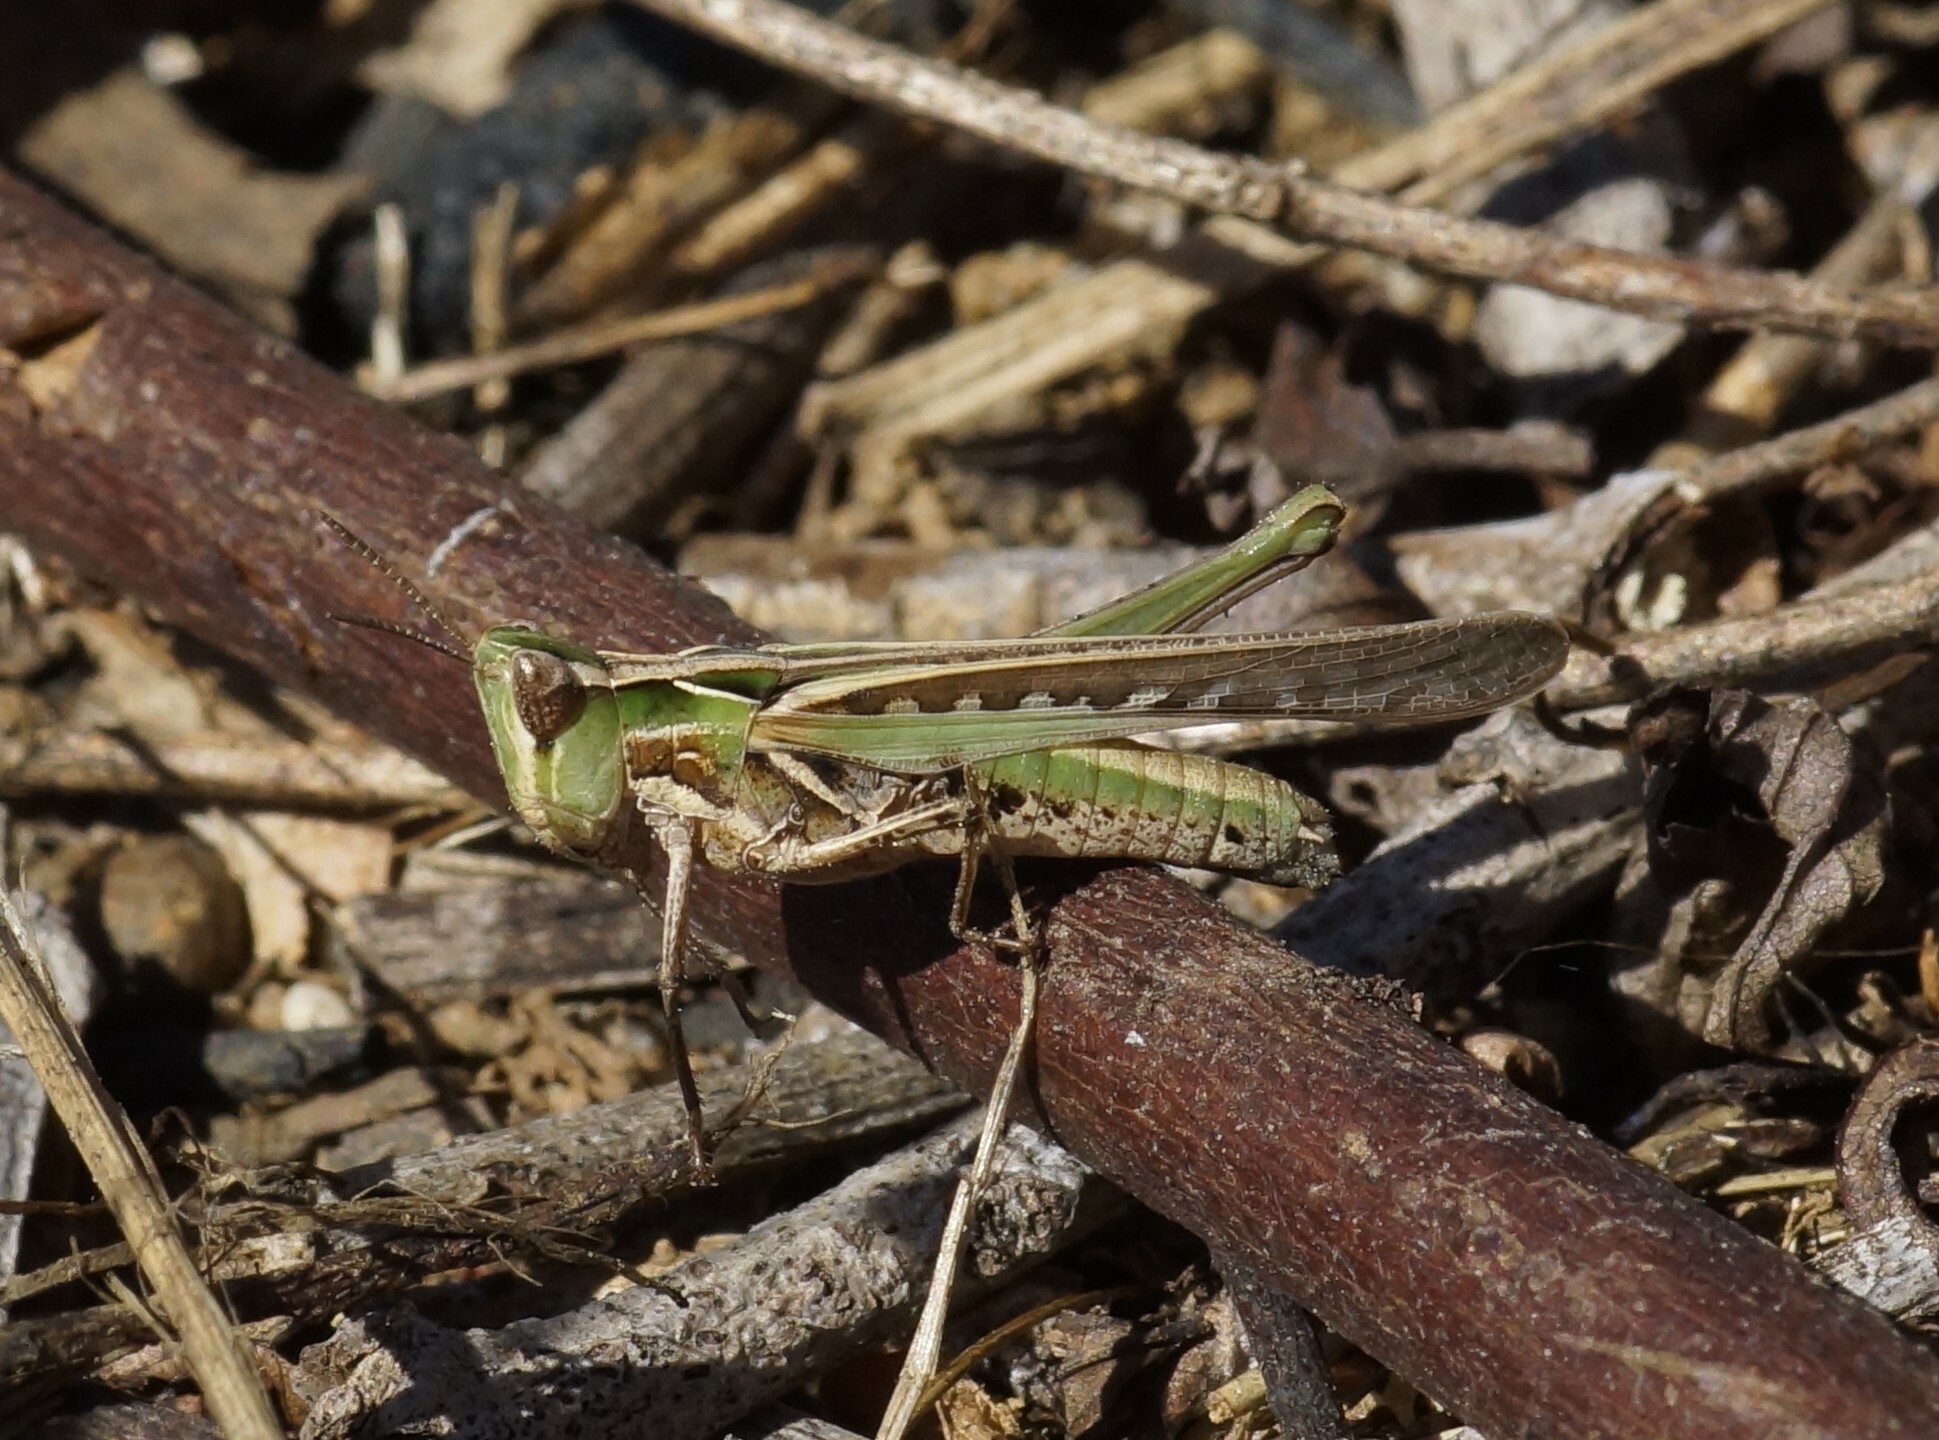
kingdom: Animalia
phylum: Arthropoda
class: Insecta
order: Orthoptera
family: Acrididae
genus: Calephorops
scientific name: Calephorops viridis
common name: Calephorops
